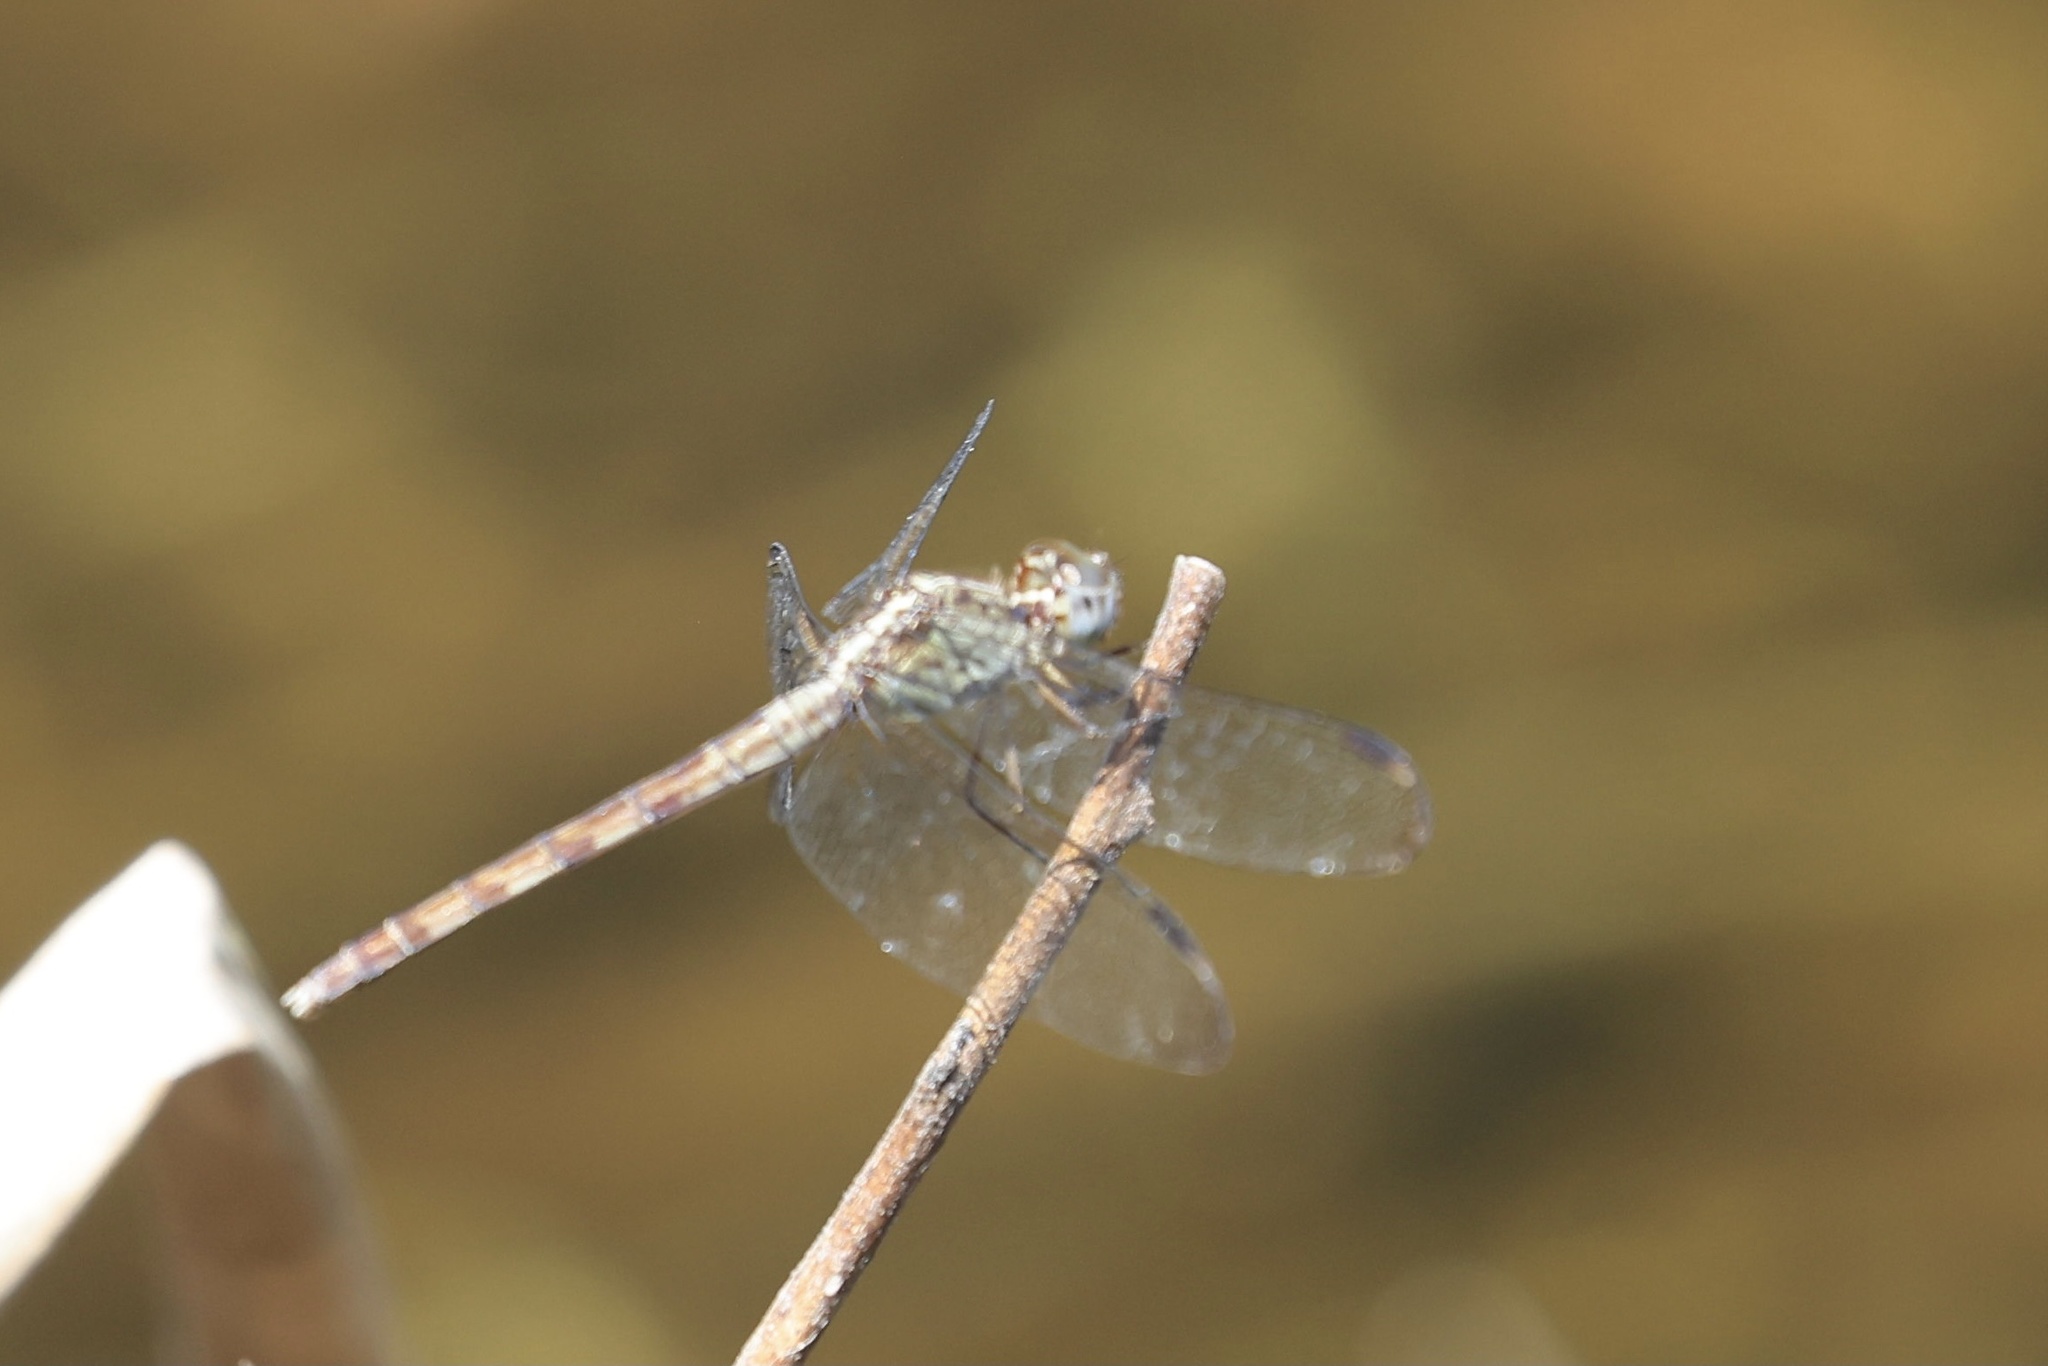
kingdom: Animalia
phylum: Arthropoda
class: Insecta
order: Odonata
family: Libellulidae
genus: Erythrodiplax
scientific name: Erythrodiplax umbrata
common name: Band-winged dragonlet
